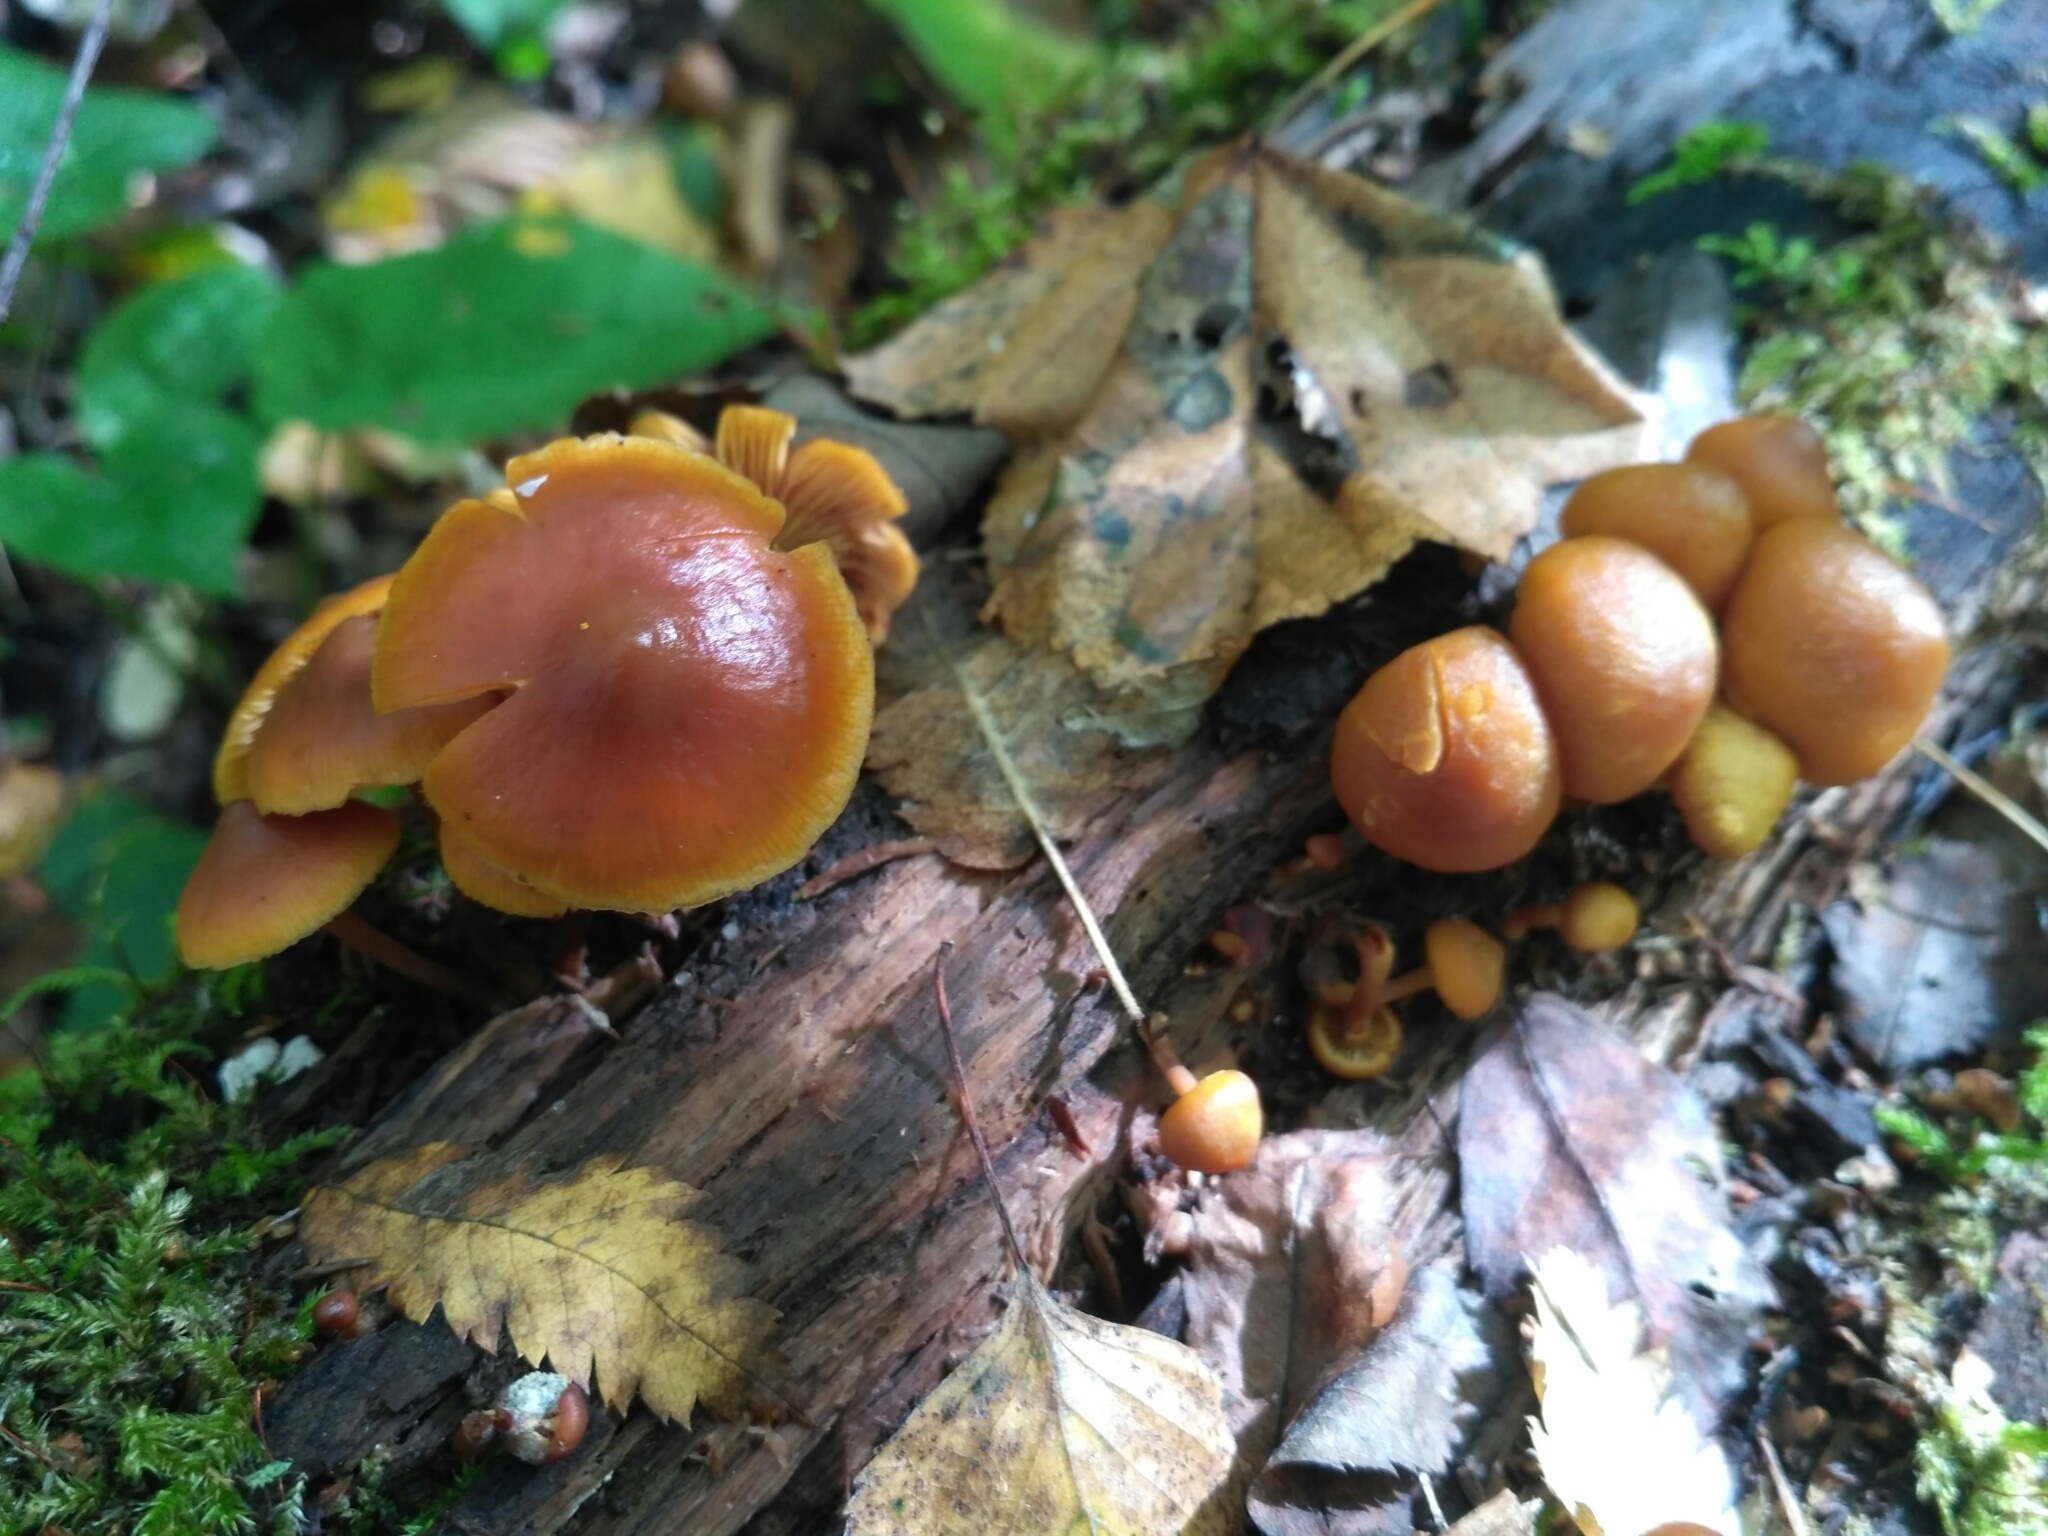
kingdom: Fungi
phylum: Basidiomycota
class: Agaricomycetes
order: Agaricales
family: Hymenogastraceae
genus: Galerina
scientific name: Galerina marginata
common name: Funeral bell
